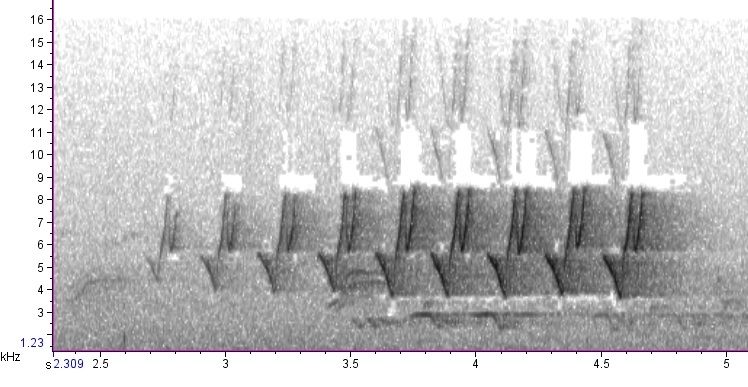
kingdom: Animalia
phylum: Chordata
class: Aves
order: Passeriformes
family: Parulidae
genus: Protonotaria
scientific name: Protonotaria citrea
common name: Prothonotary warbler
